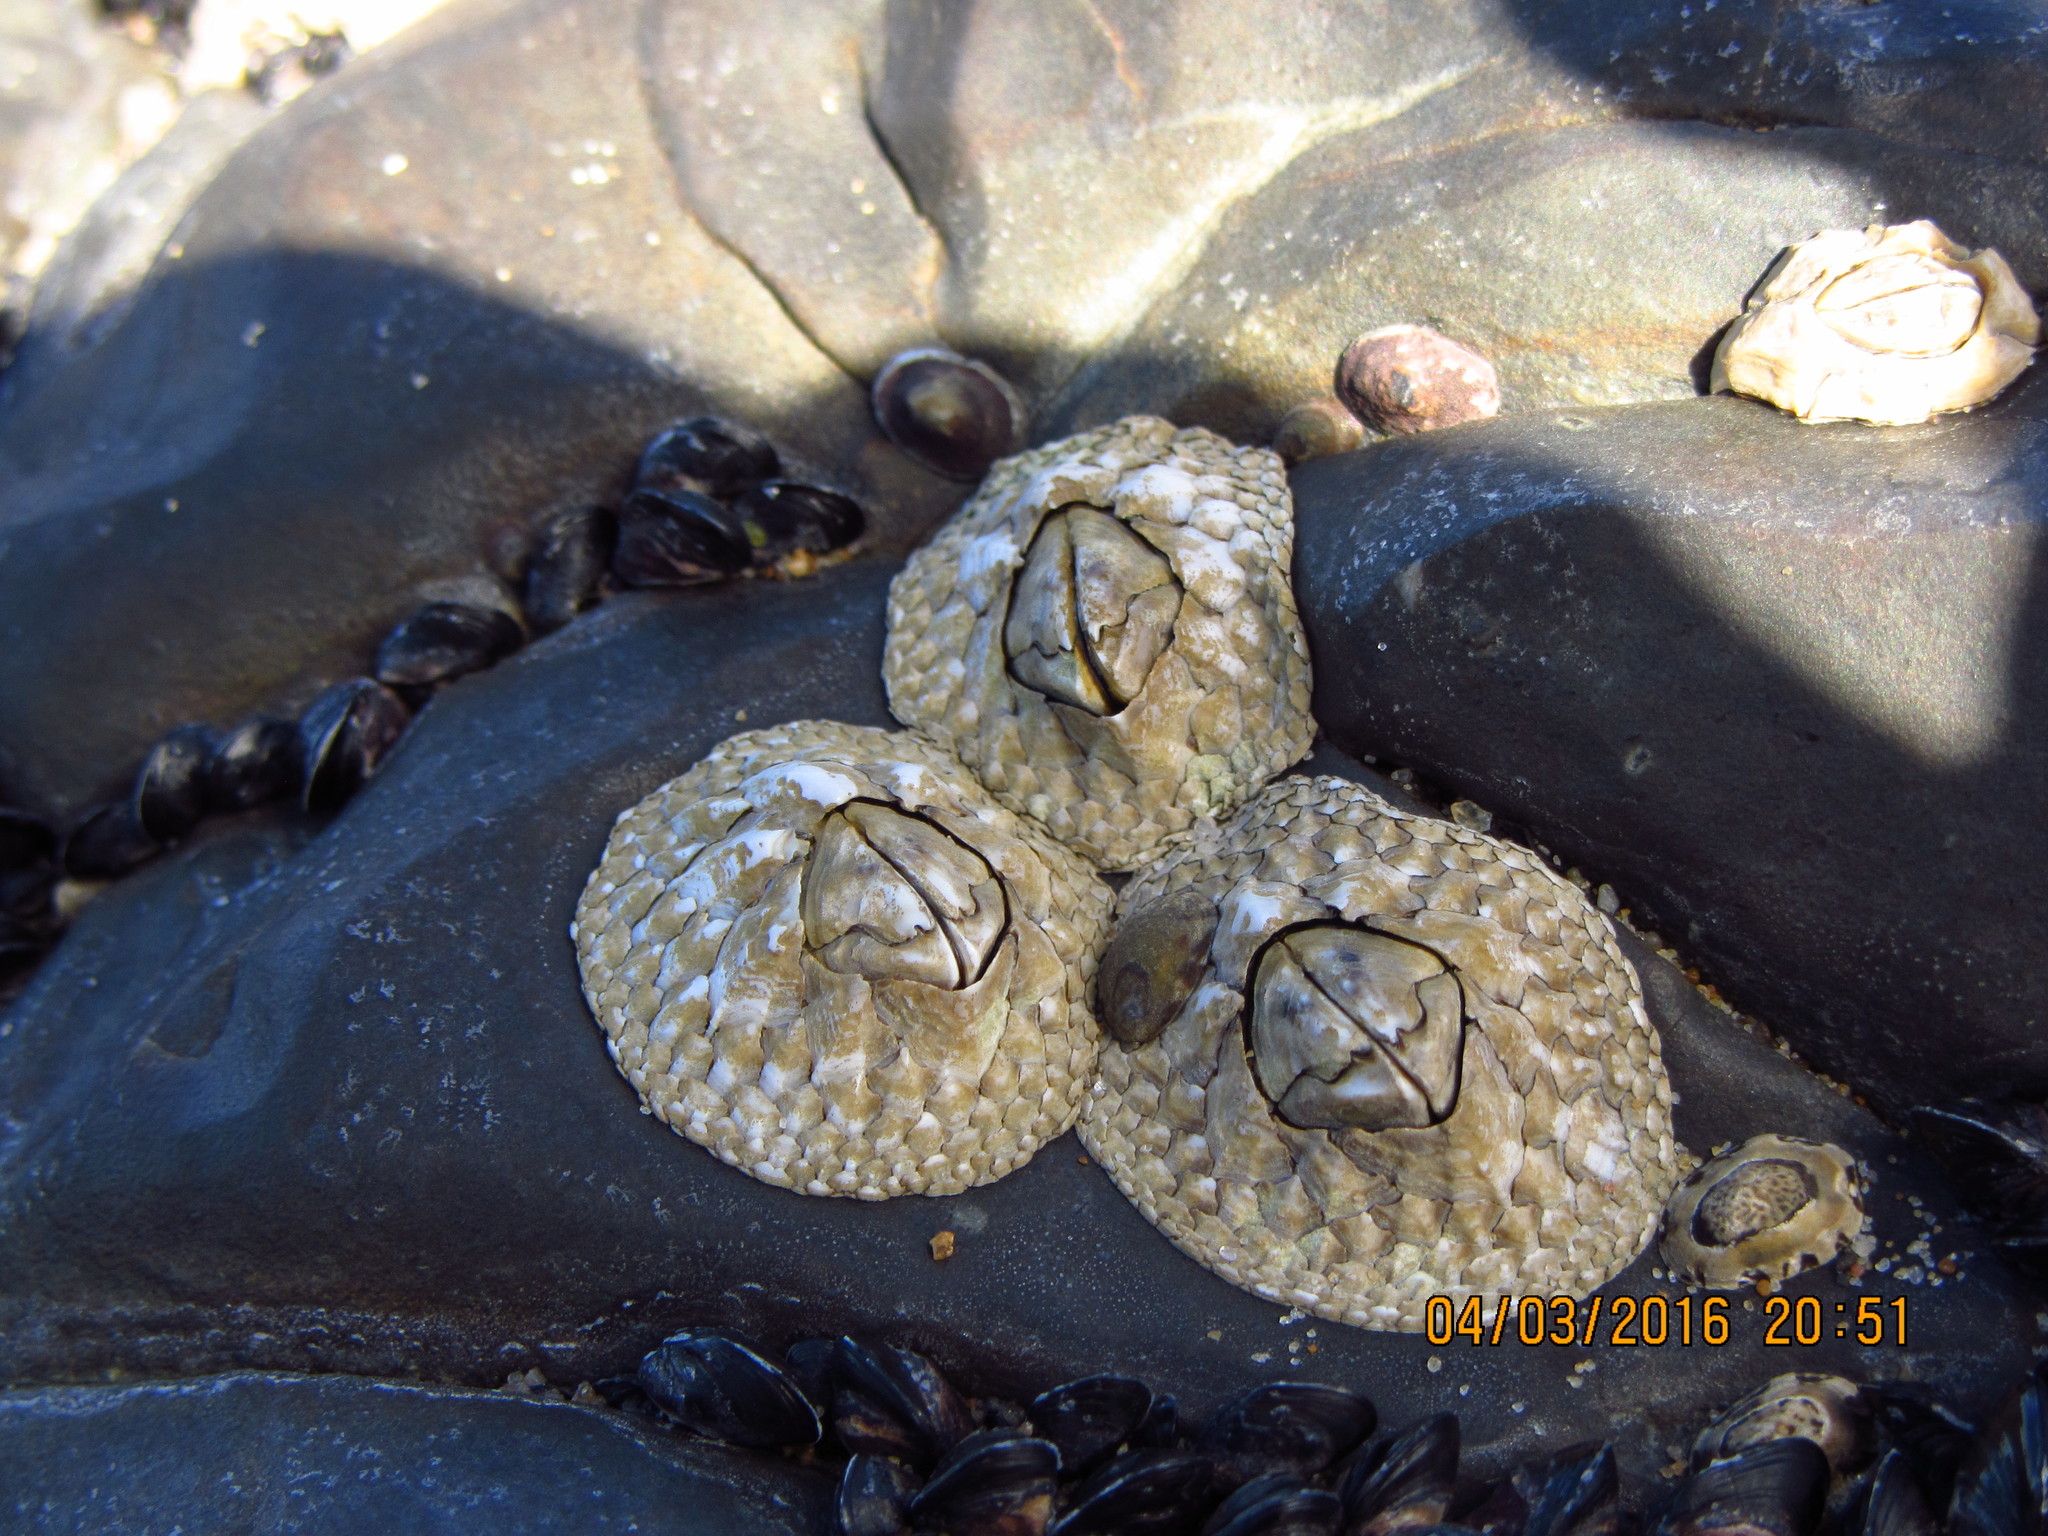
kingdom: Animalia
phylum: Arthropoda
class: Maxillopoda
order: Sessilia
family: Catophragmidae
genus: Catomerus
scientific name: Catomerus polymerus
